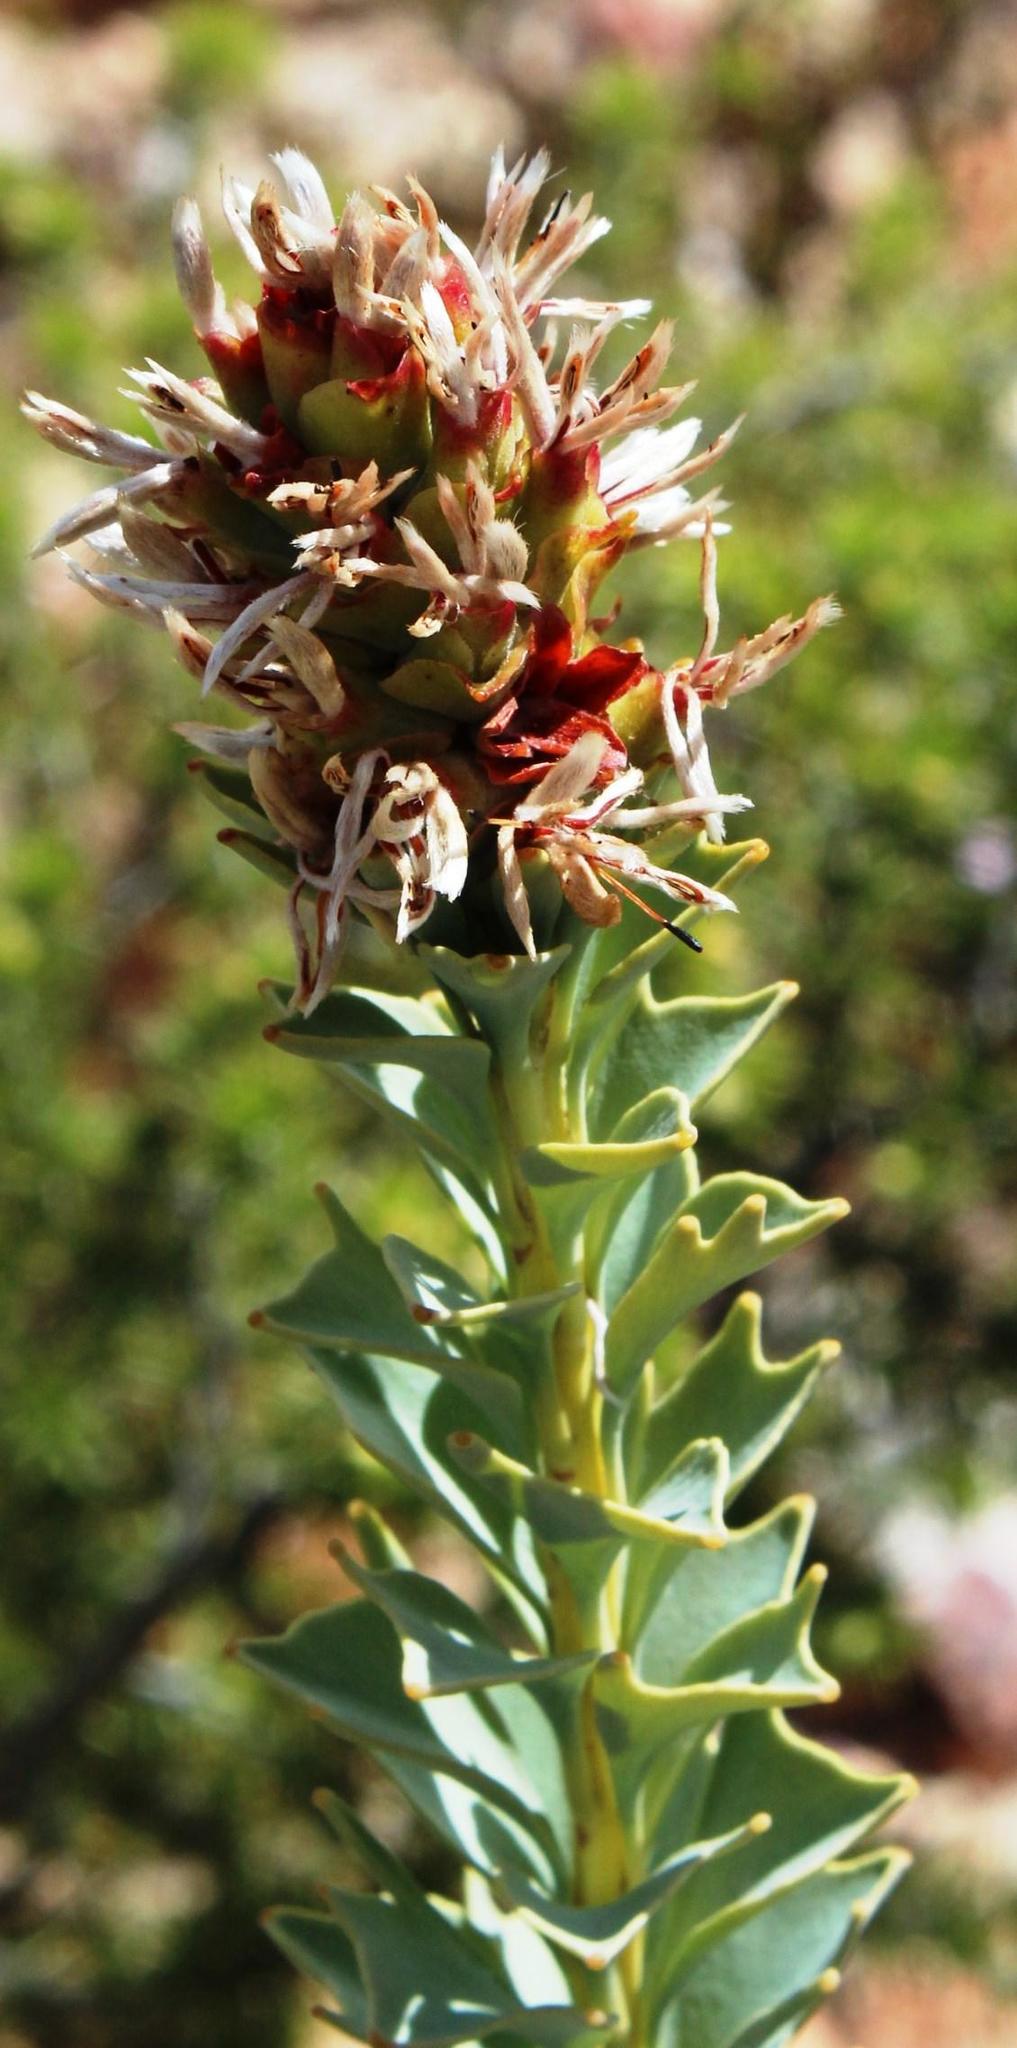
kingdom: Plantae
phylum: Tracheophyta
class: Magnoliopsida
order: Proteales
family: Proteaceae
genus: Paranomus
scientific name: Paranomus roodebergensis
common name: Honey-scented sceptre
